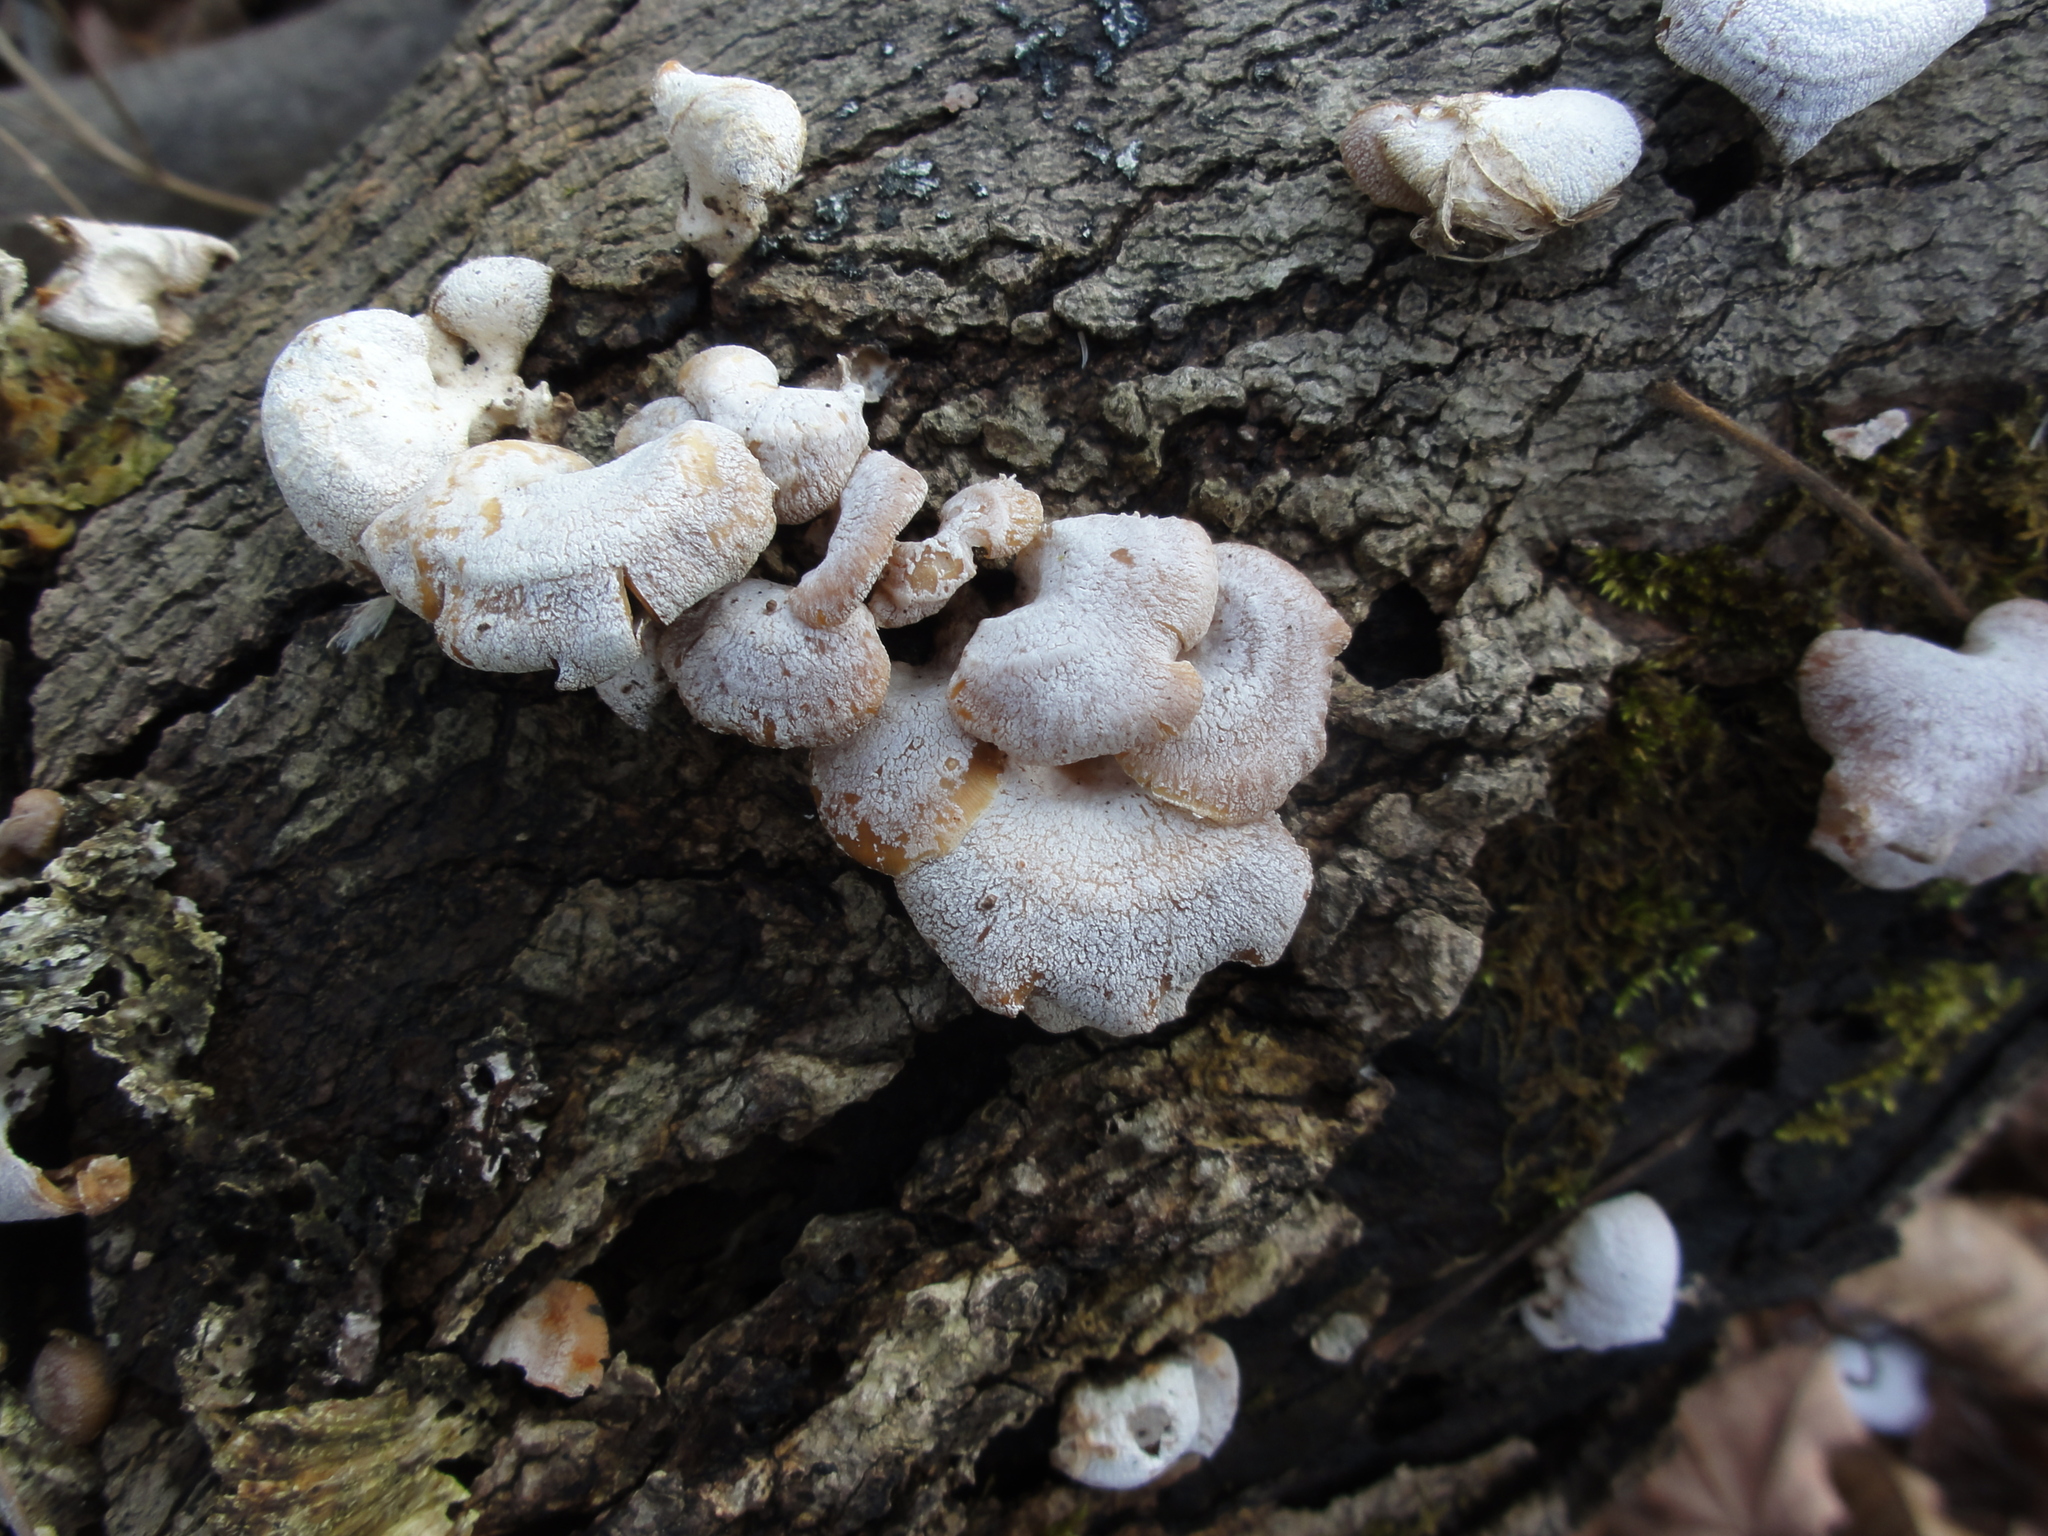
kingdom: Fungi
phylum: Basidiomycota
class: Agaricomycetes
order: Agaricales
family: Mycenaceae
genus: Panellus
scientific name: Panellus stipticus
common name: Bitter oysterling
